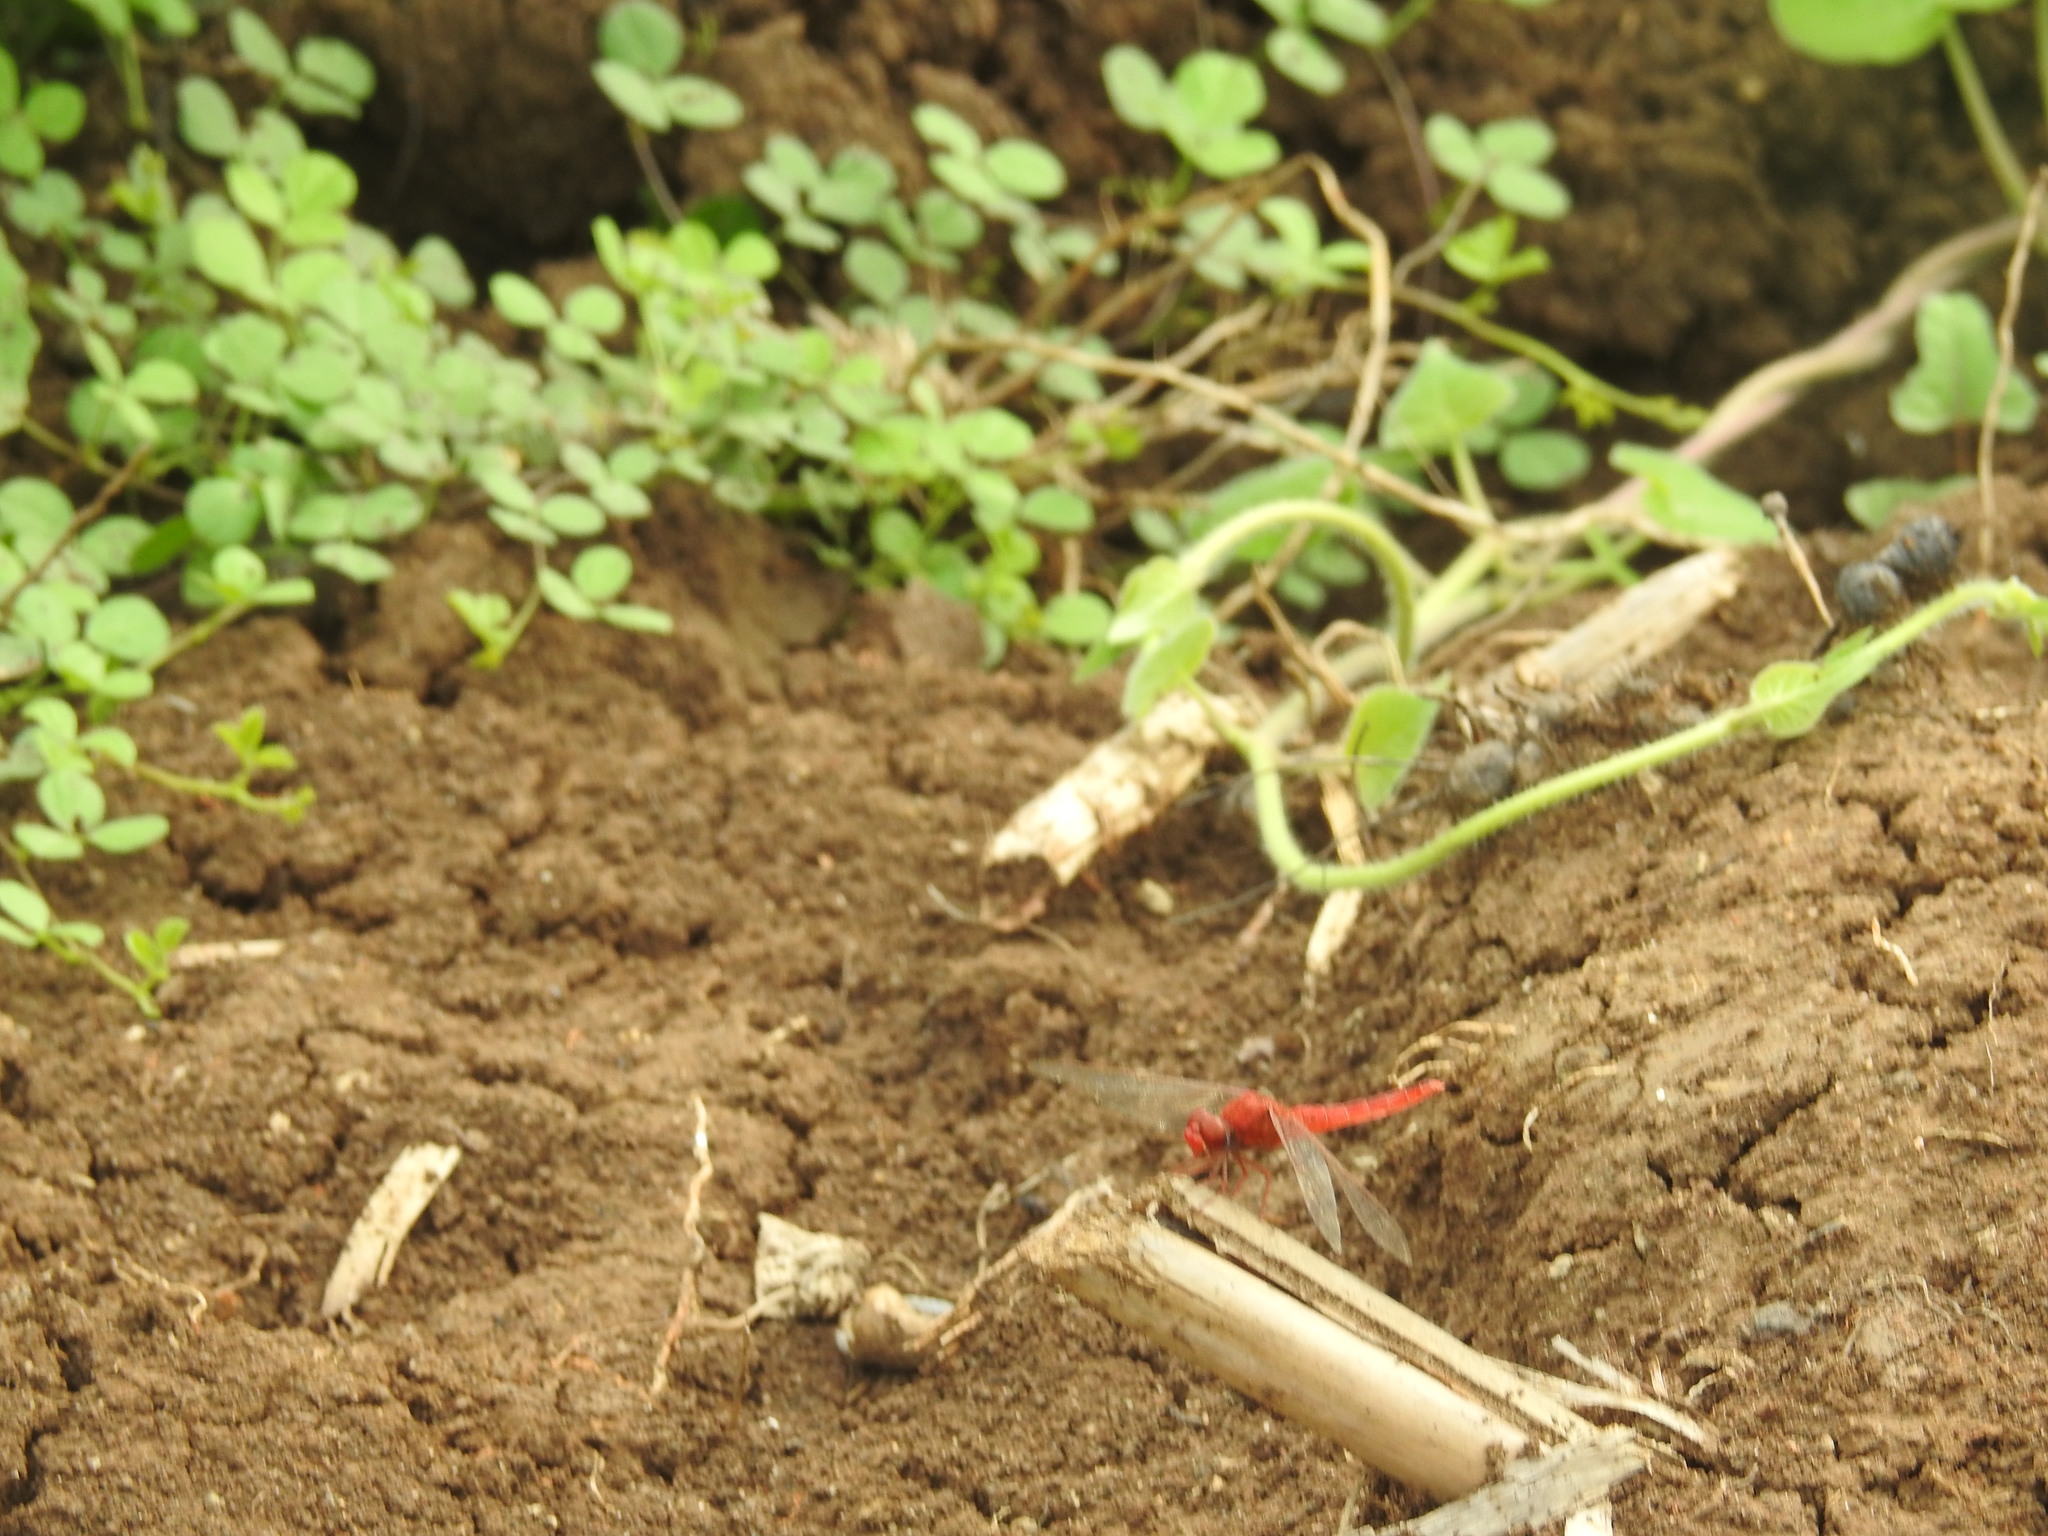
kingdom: Animalia
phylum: Arthropoda
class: Insecta
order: Odonata
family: Libellulidae
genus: Crocothemis
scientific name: Crocothemis servilia
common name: Scarlet skimmer
